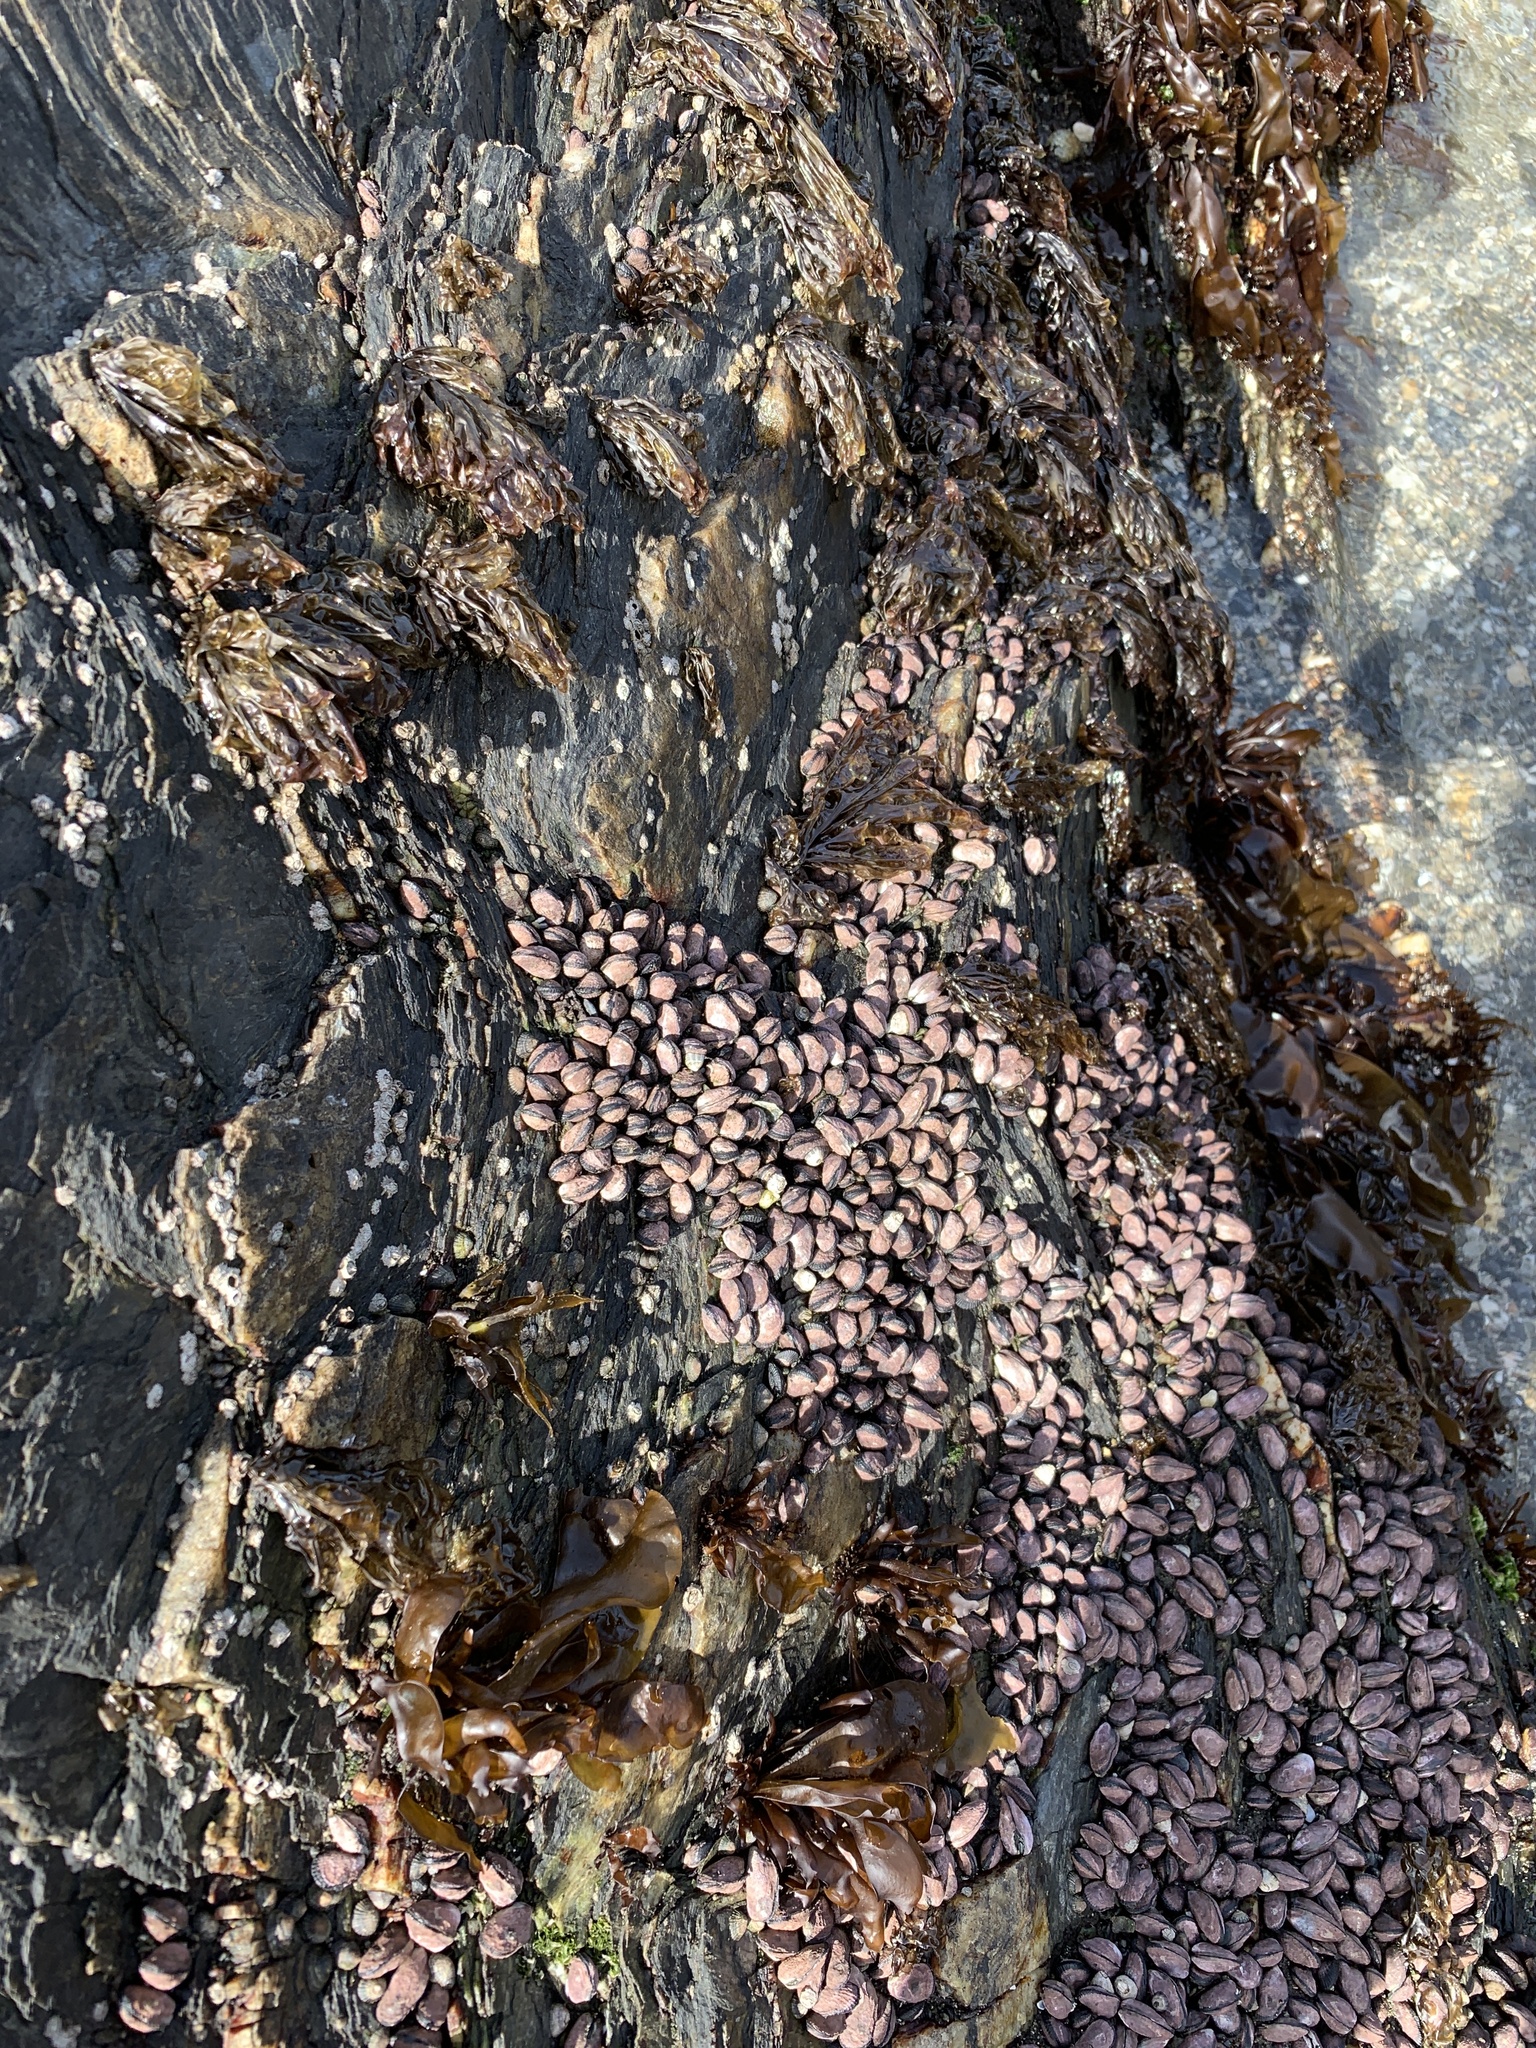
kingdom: Animalia
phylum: Mollusca
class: Bivalvia
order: Mytilida
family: Mytilidae
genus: Perumytilus
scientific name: Perumytilus purpuratus
